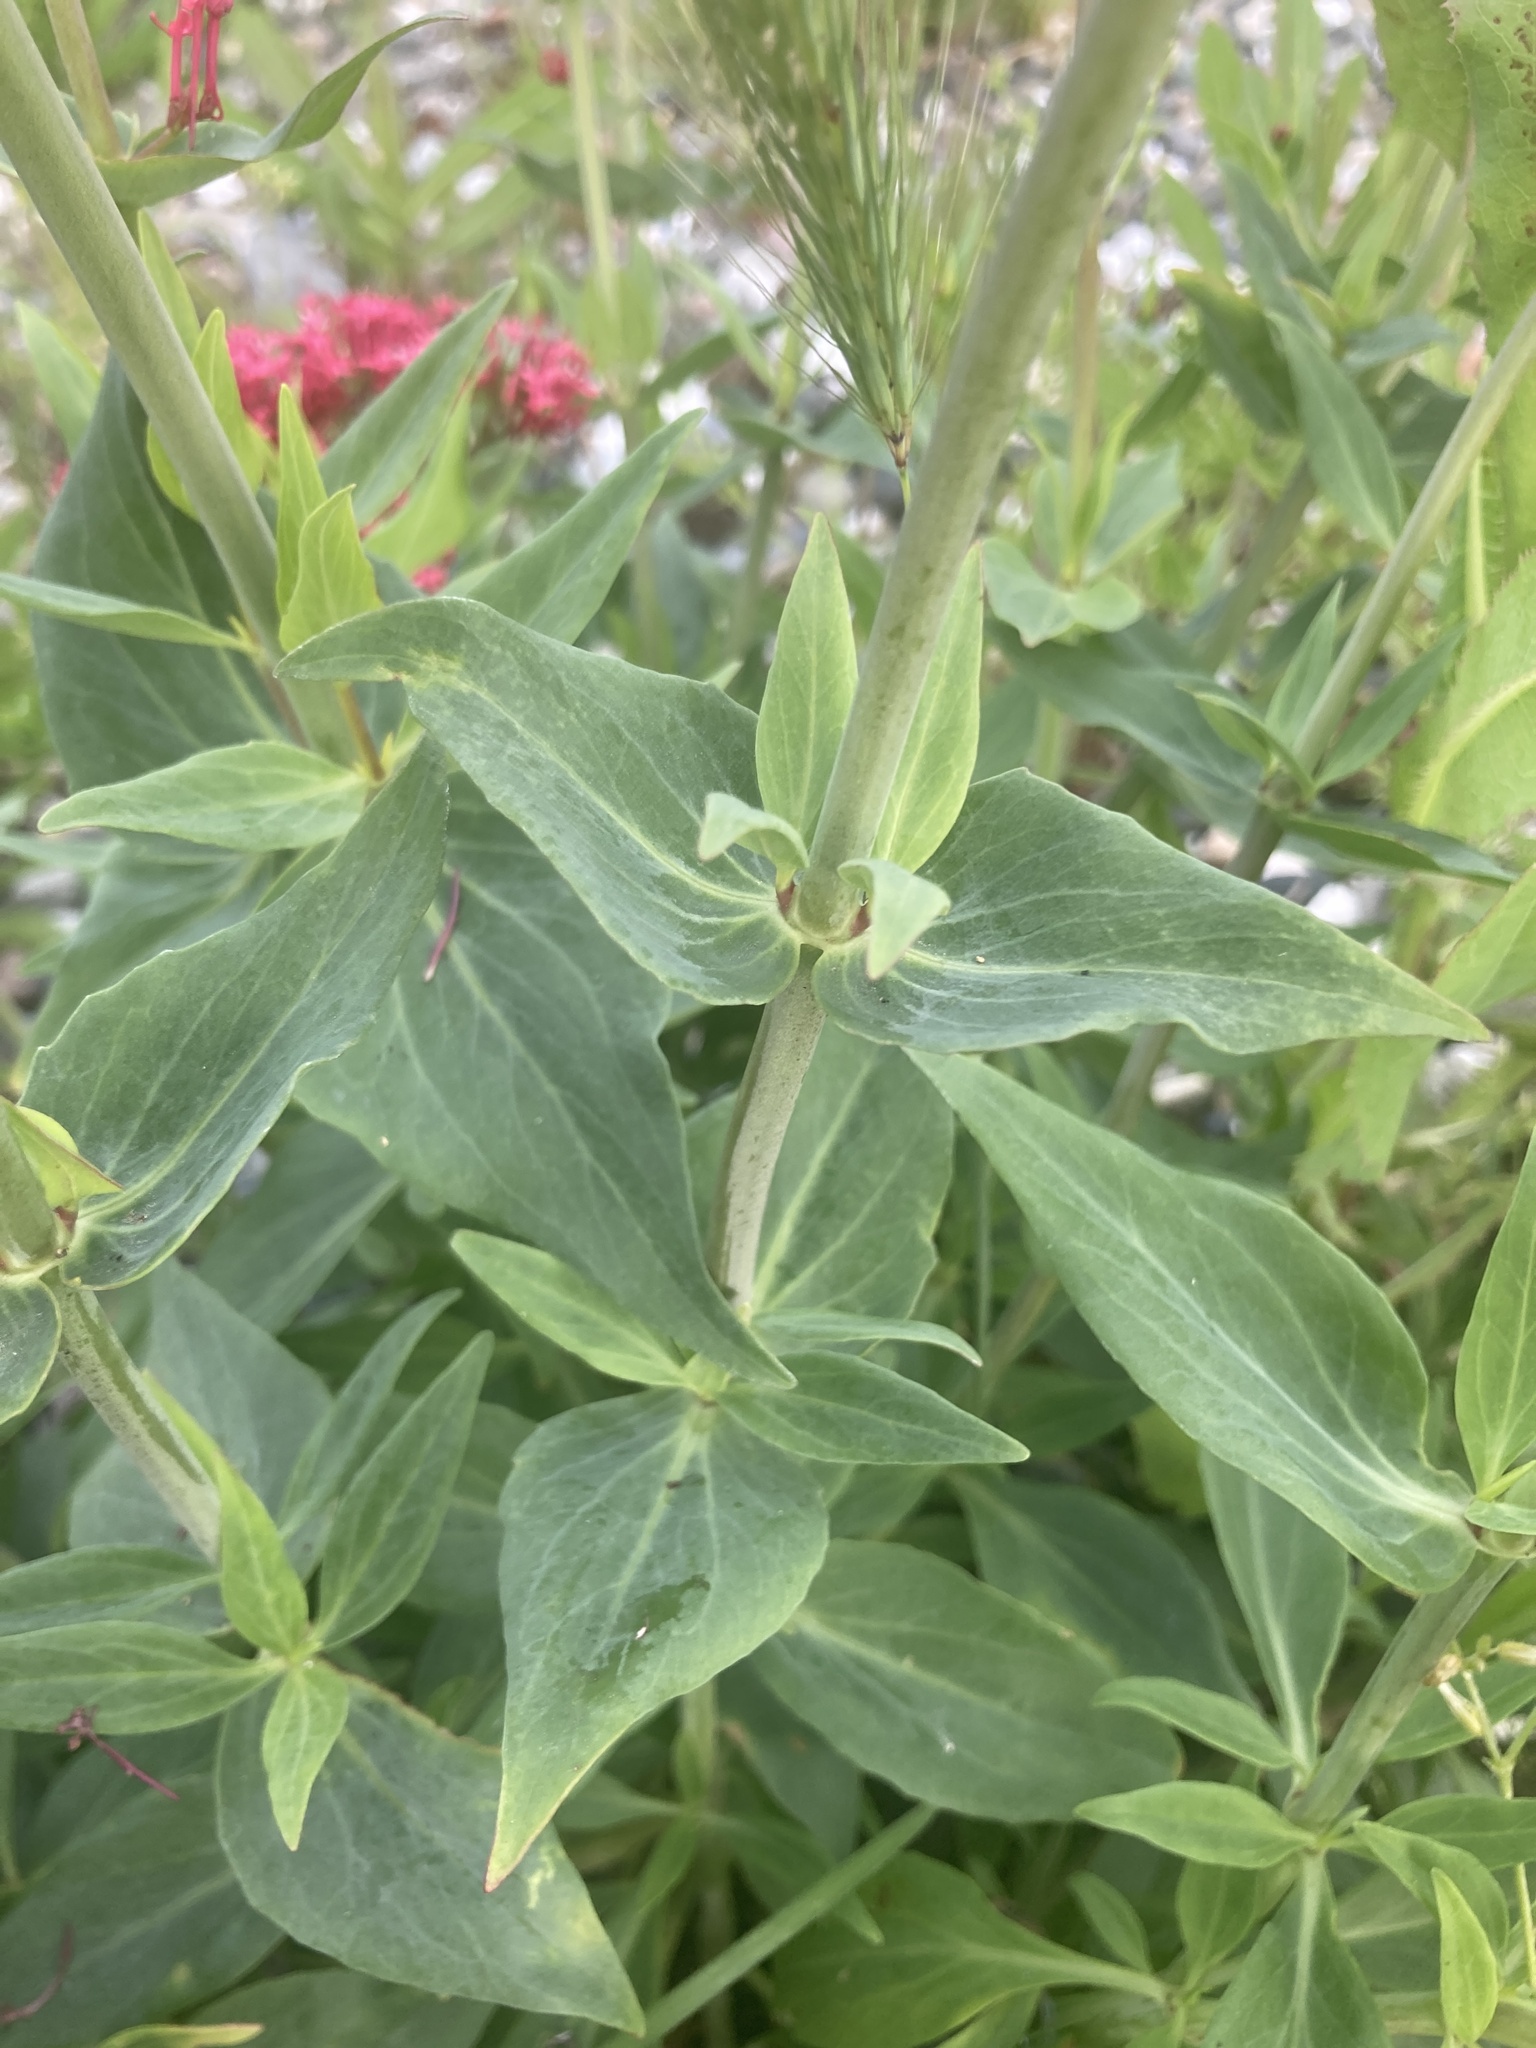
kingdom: Plantae
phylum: Tracheophyta
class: Magnoliopsida
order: Dipsacales
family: Caprifoliaceae
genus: Centranthus
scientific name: Centranthus ruber
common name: Red valerian
